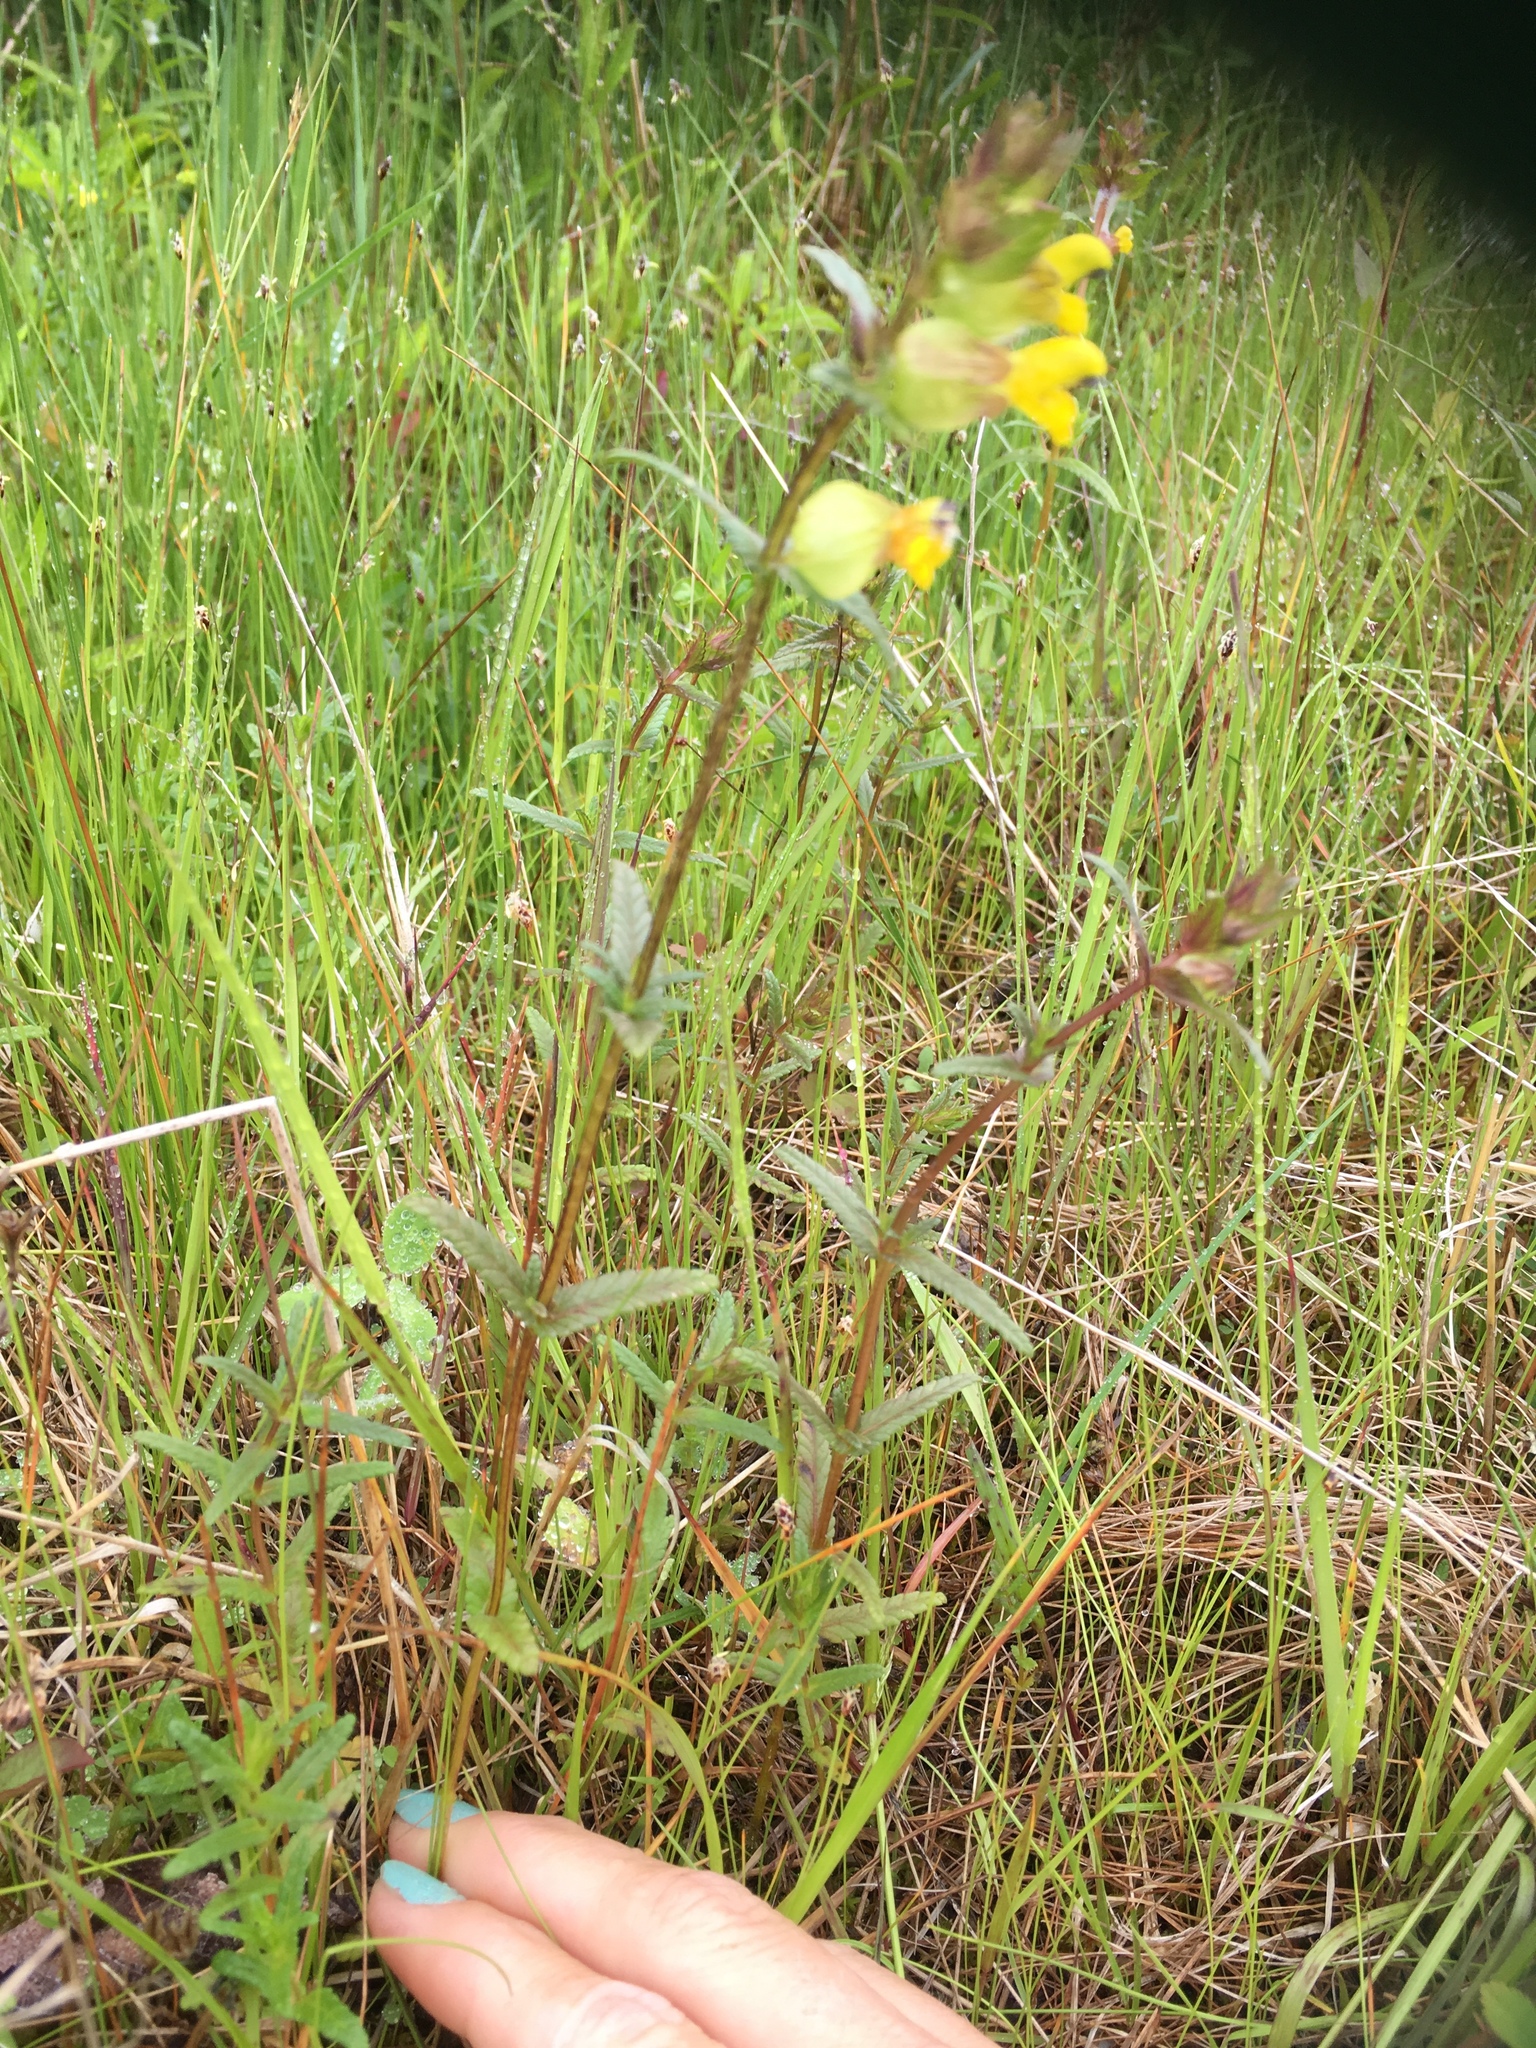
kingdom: Plantae
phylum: Tracheophyta
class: Magnoliopsida
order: Lamiales
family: Orobanchaceae
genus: Rhinanthus
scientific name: Rhinanthus minor
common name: Yellow-rattle
